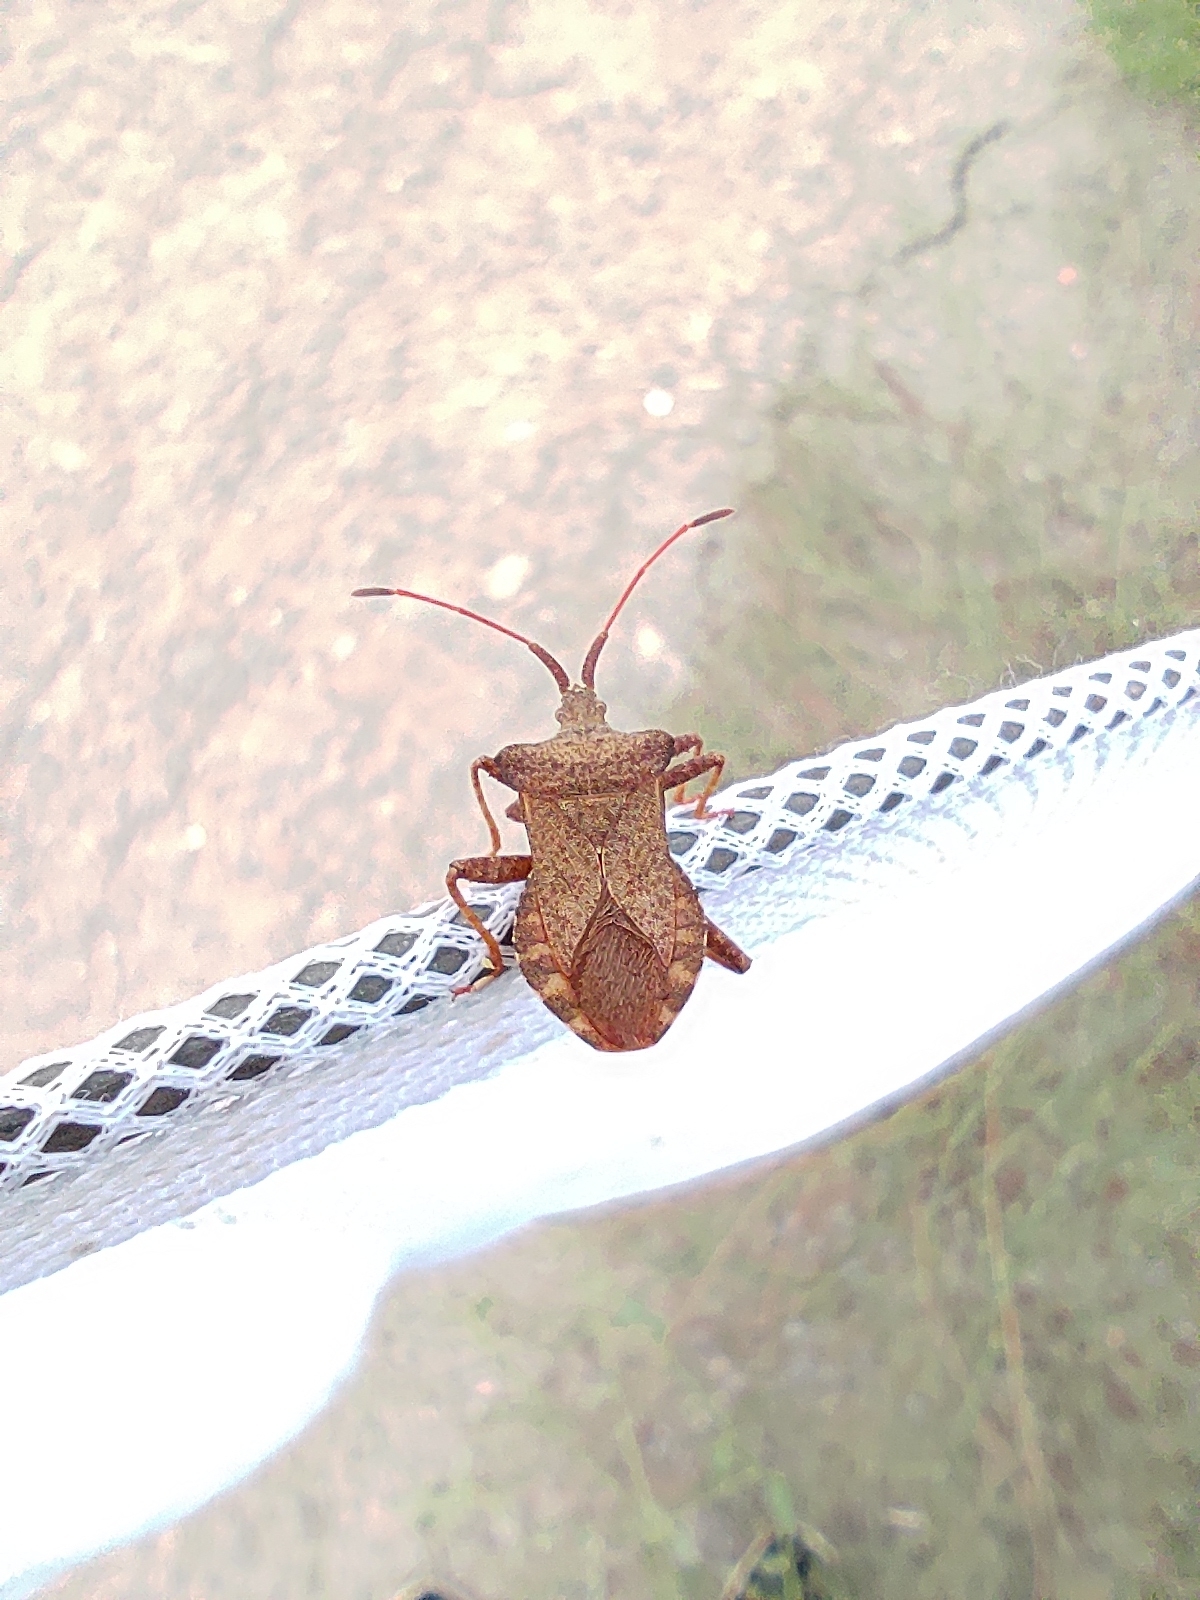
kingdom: Animalia
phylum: Arthropoda
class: Insecta
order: Hemiptera
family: Coreidae
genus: Coreus
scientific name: Coreus marginatus
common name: Dock bug
